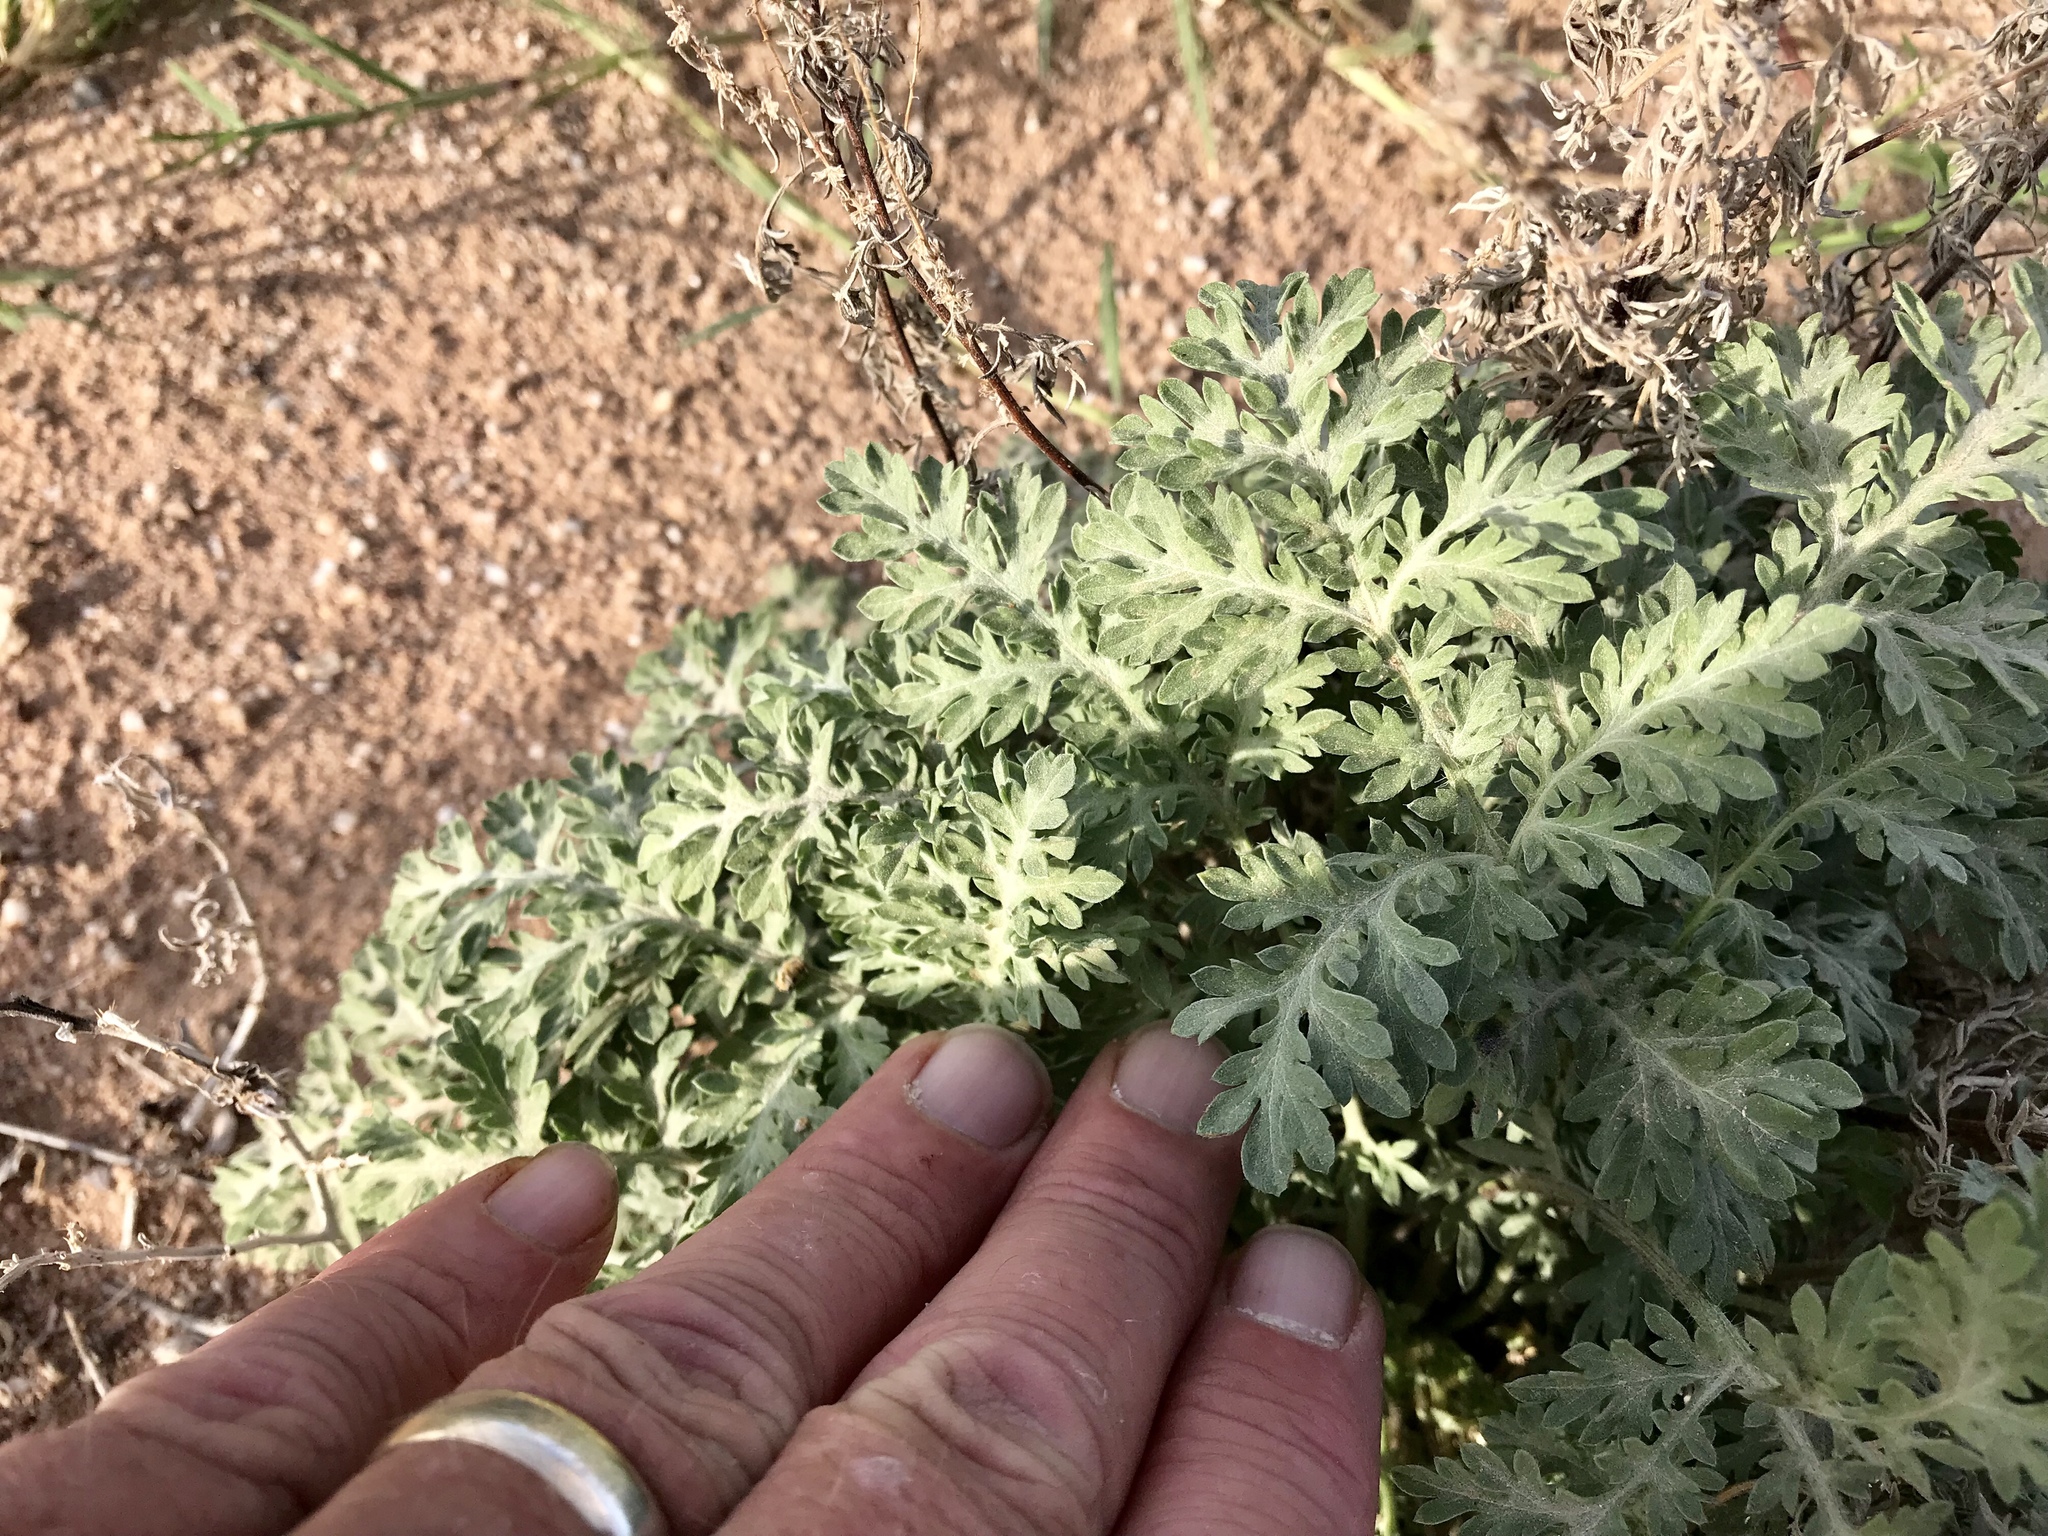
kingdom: Plantae
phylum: Tracheophyta
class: Magnoliopsida
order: Asterales
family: Asteraceae
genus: Ambrosia
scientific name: Ambrosia confertiflora
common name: Bur ragweed
